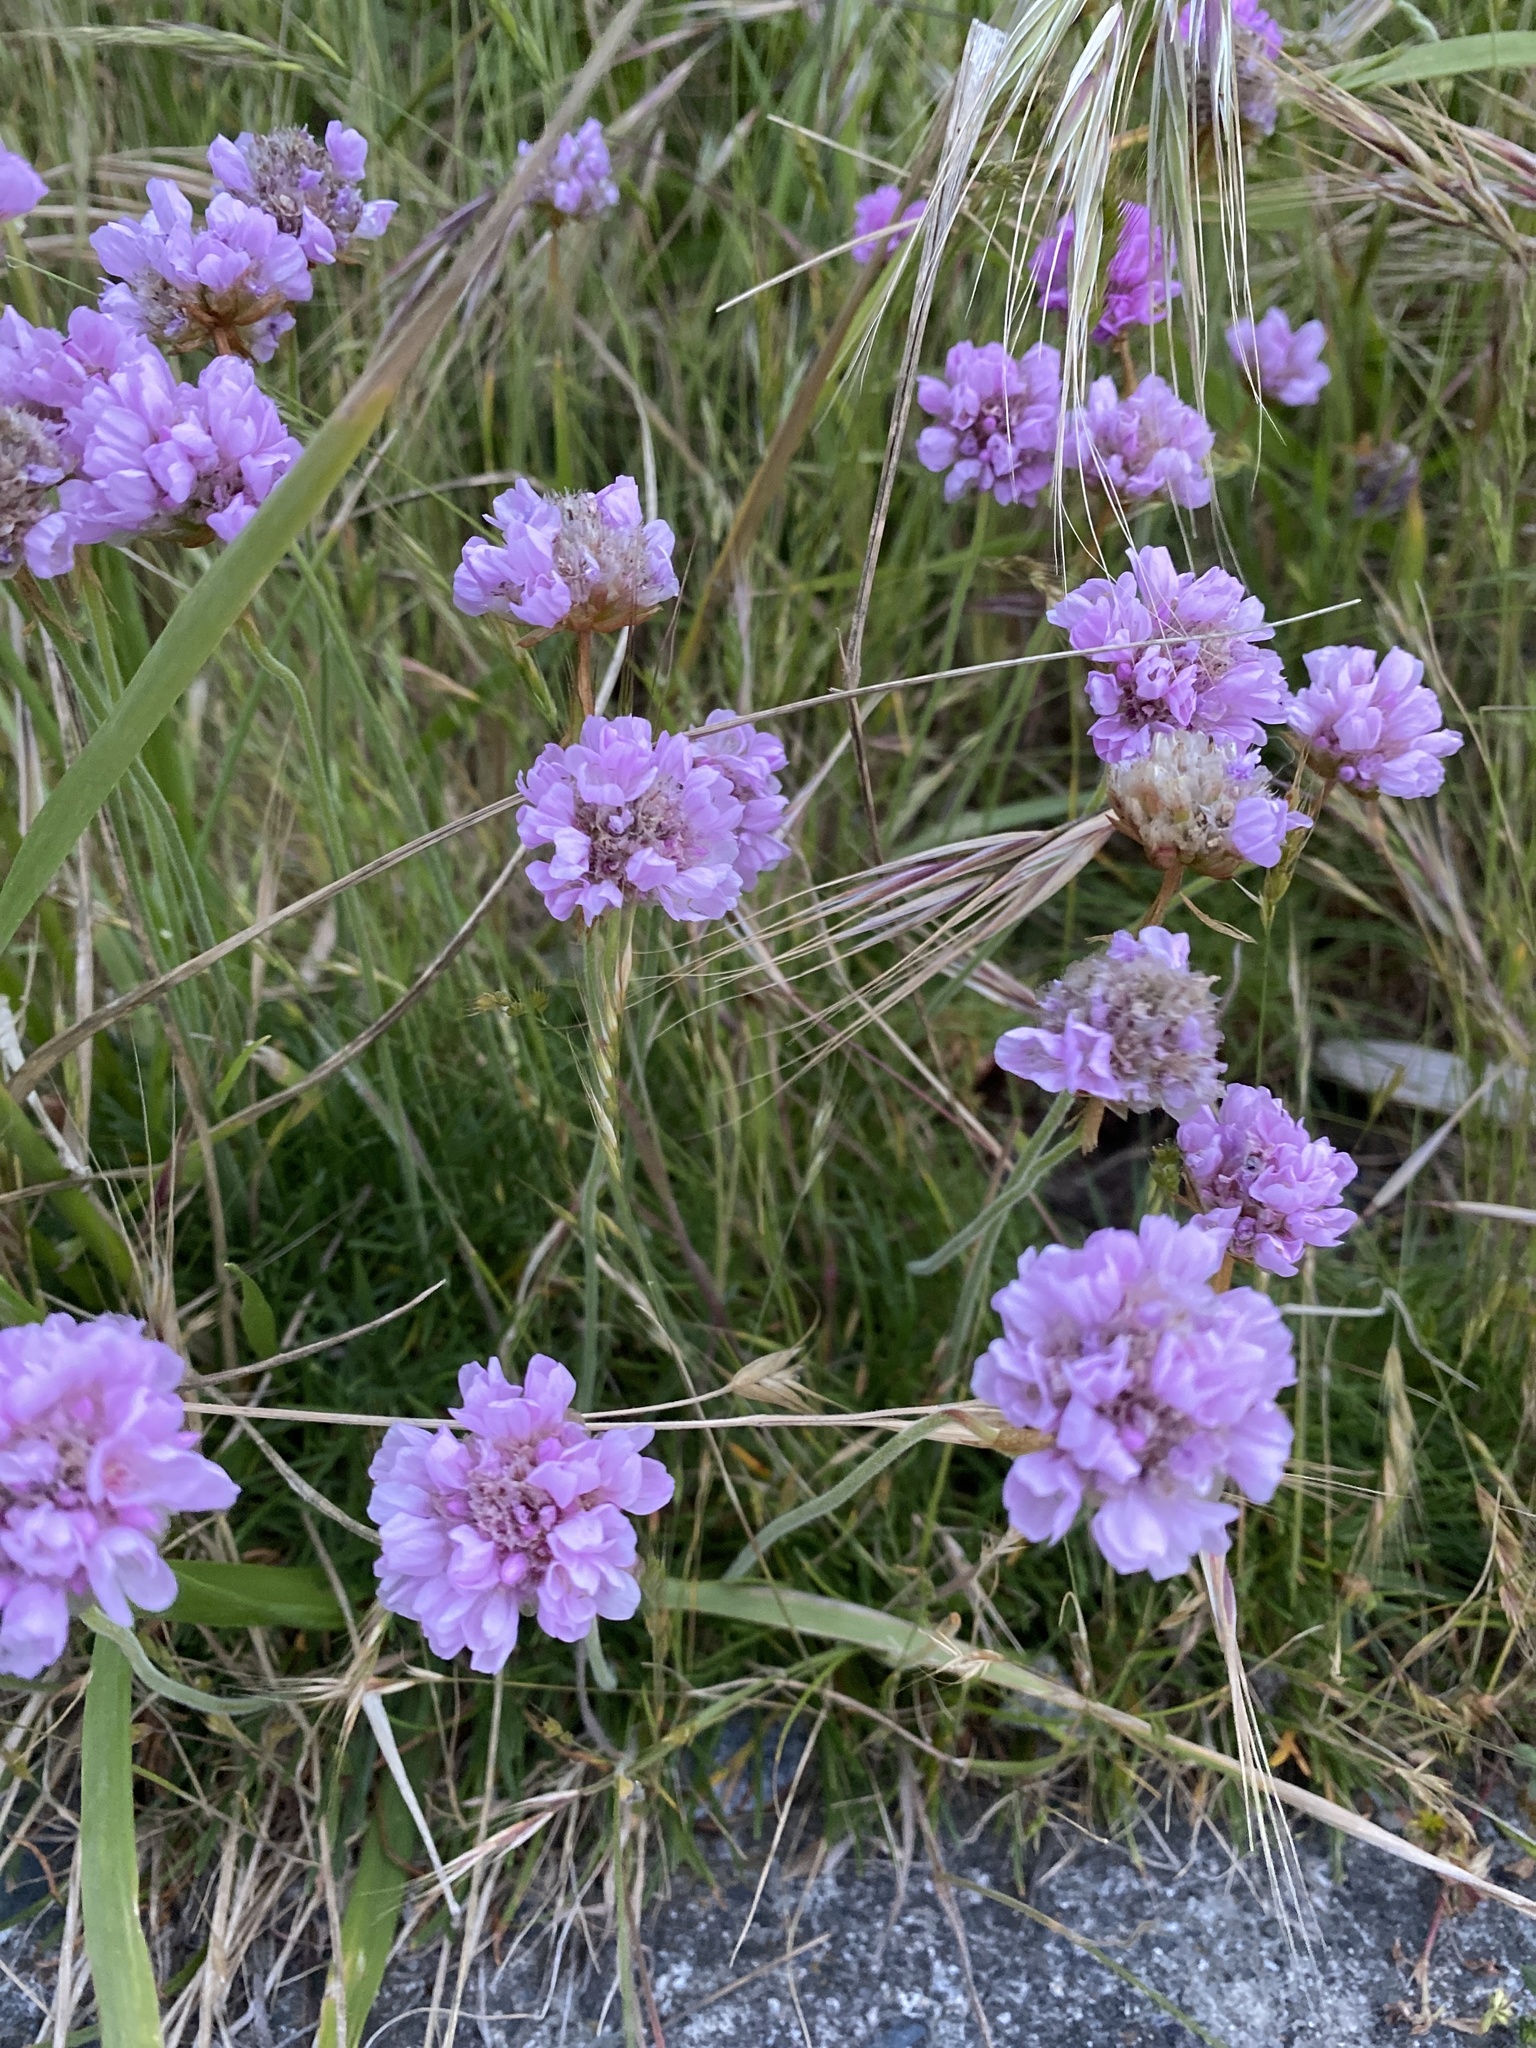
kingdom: Plantae
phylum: Tracheophyta
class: Magnoliopsida
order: Caryophyllales
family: Plumbaginaceae
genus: Armeria
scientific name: Armeria maritima
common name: Thrift
